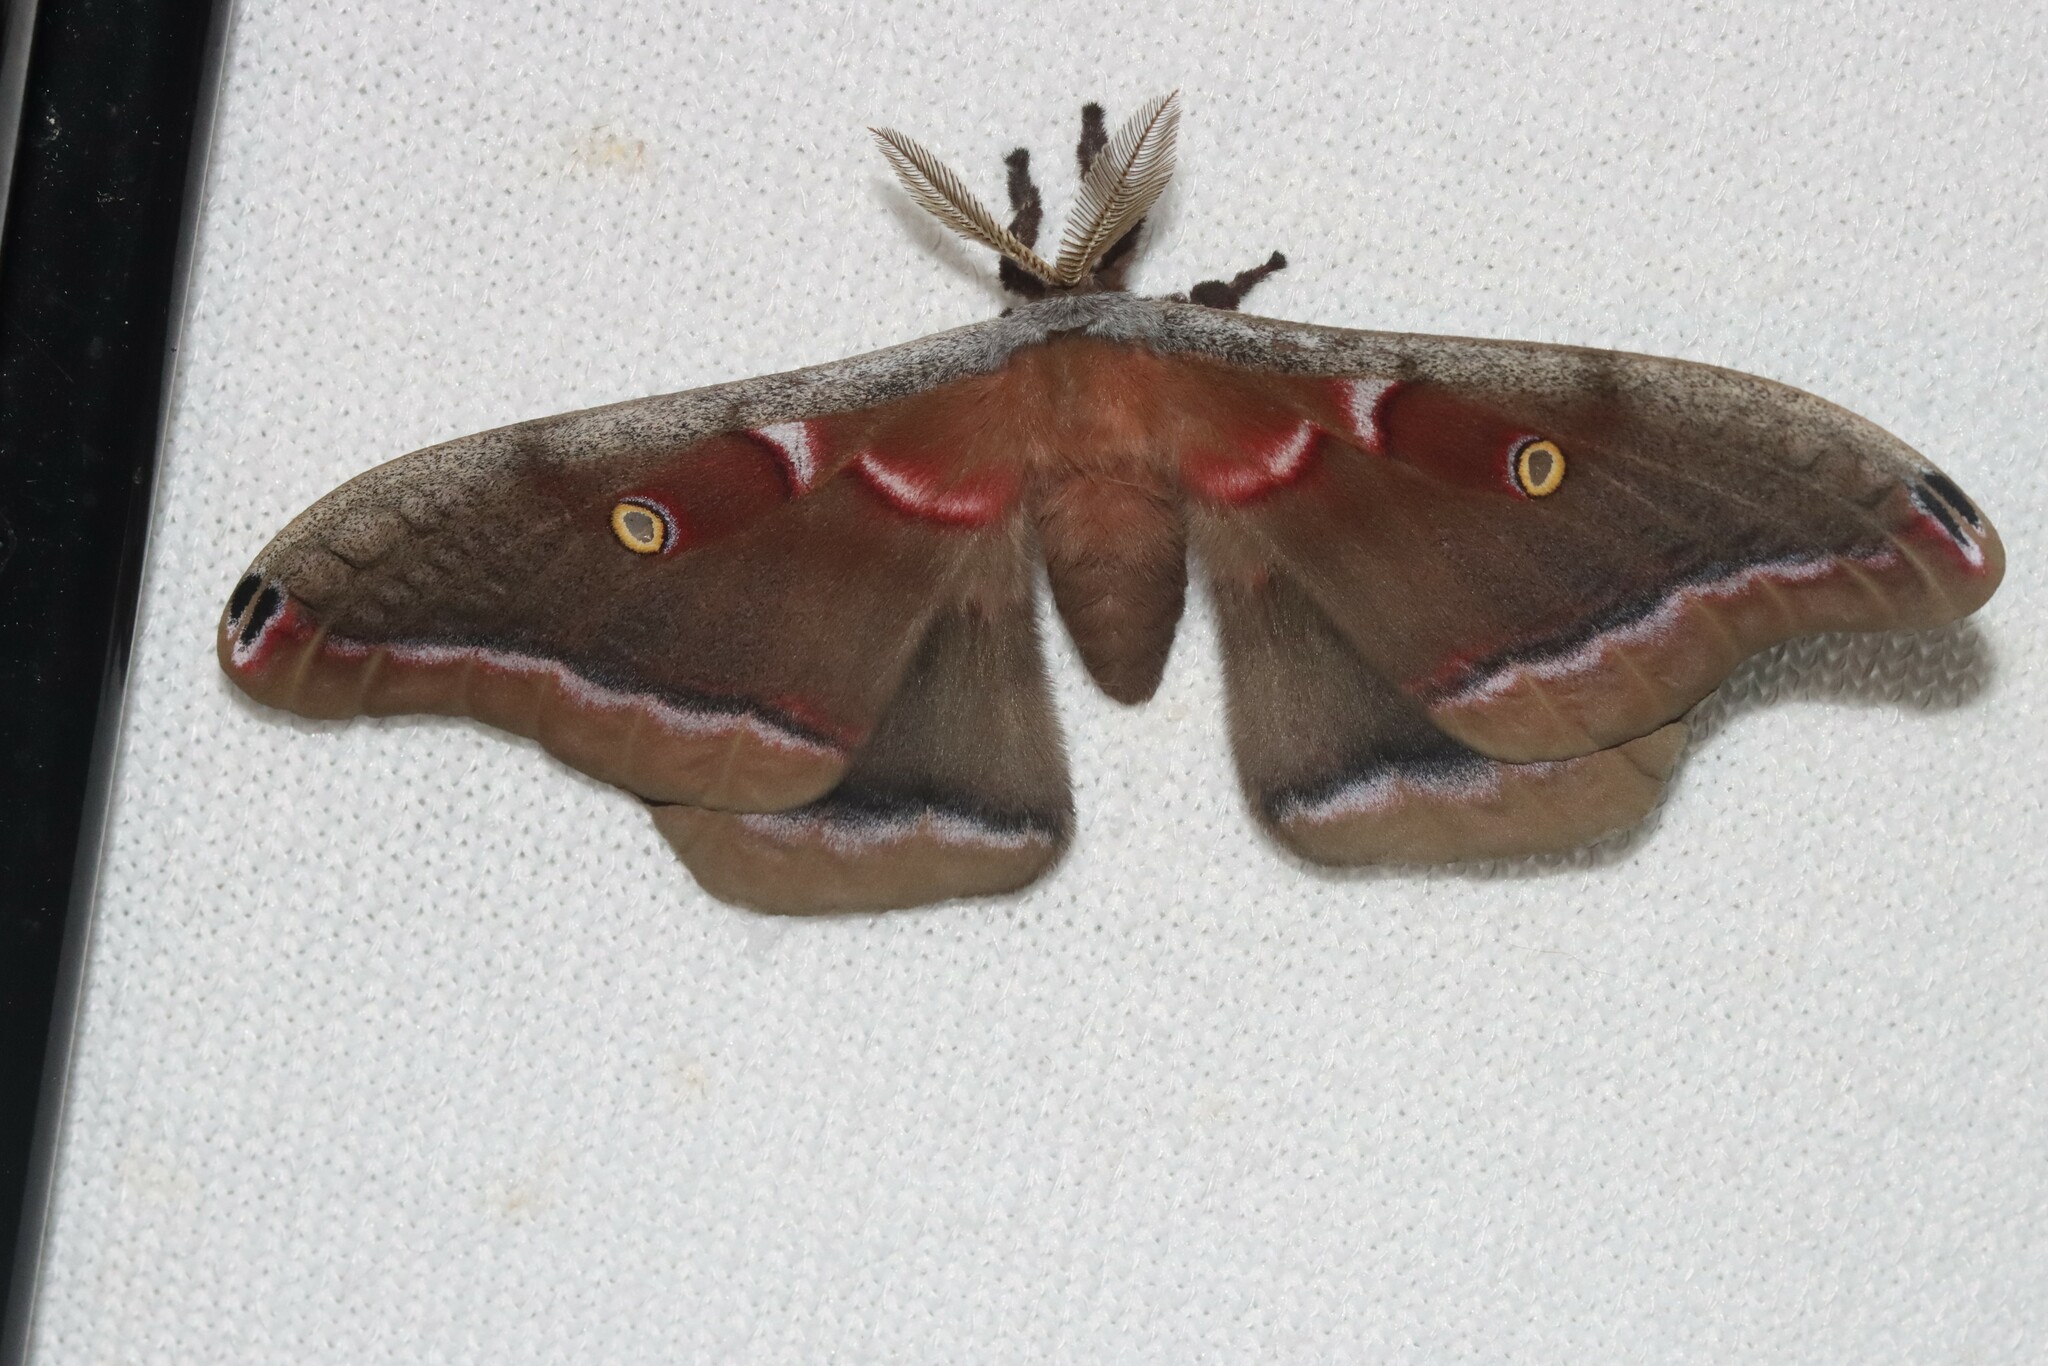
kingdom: Animalia
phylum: Arthropoda
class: Insecta
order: Lepidoptera
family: Saturniidae
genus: Antheraea
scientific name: Antheraea polyphemus
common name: Polyphemus moth
